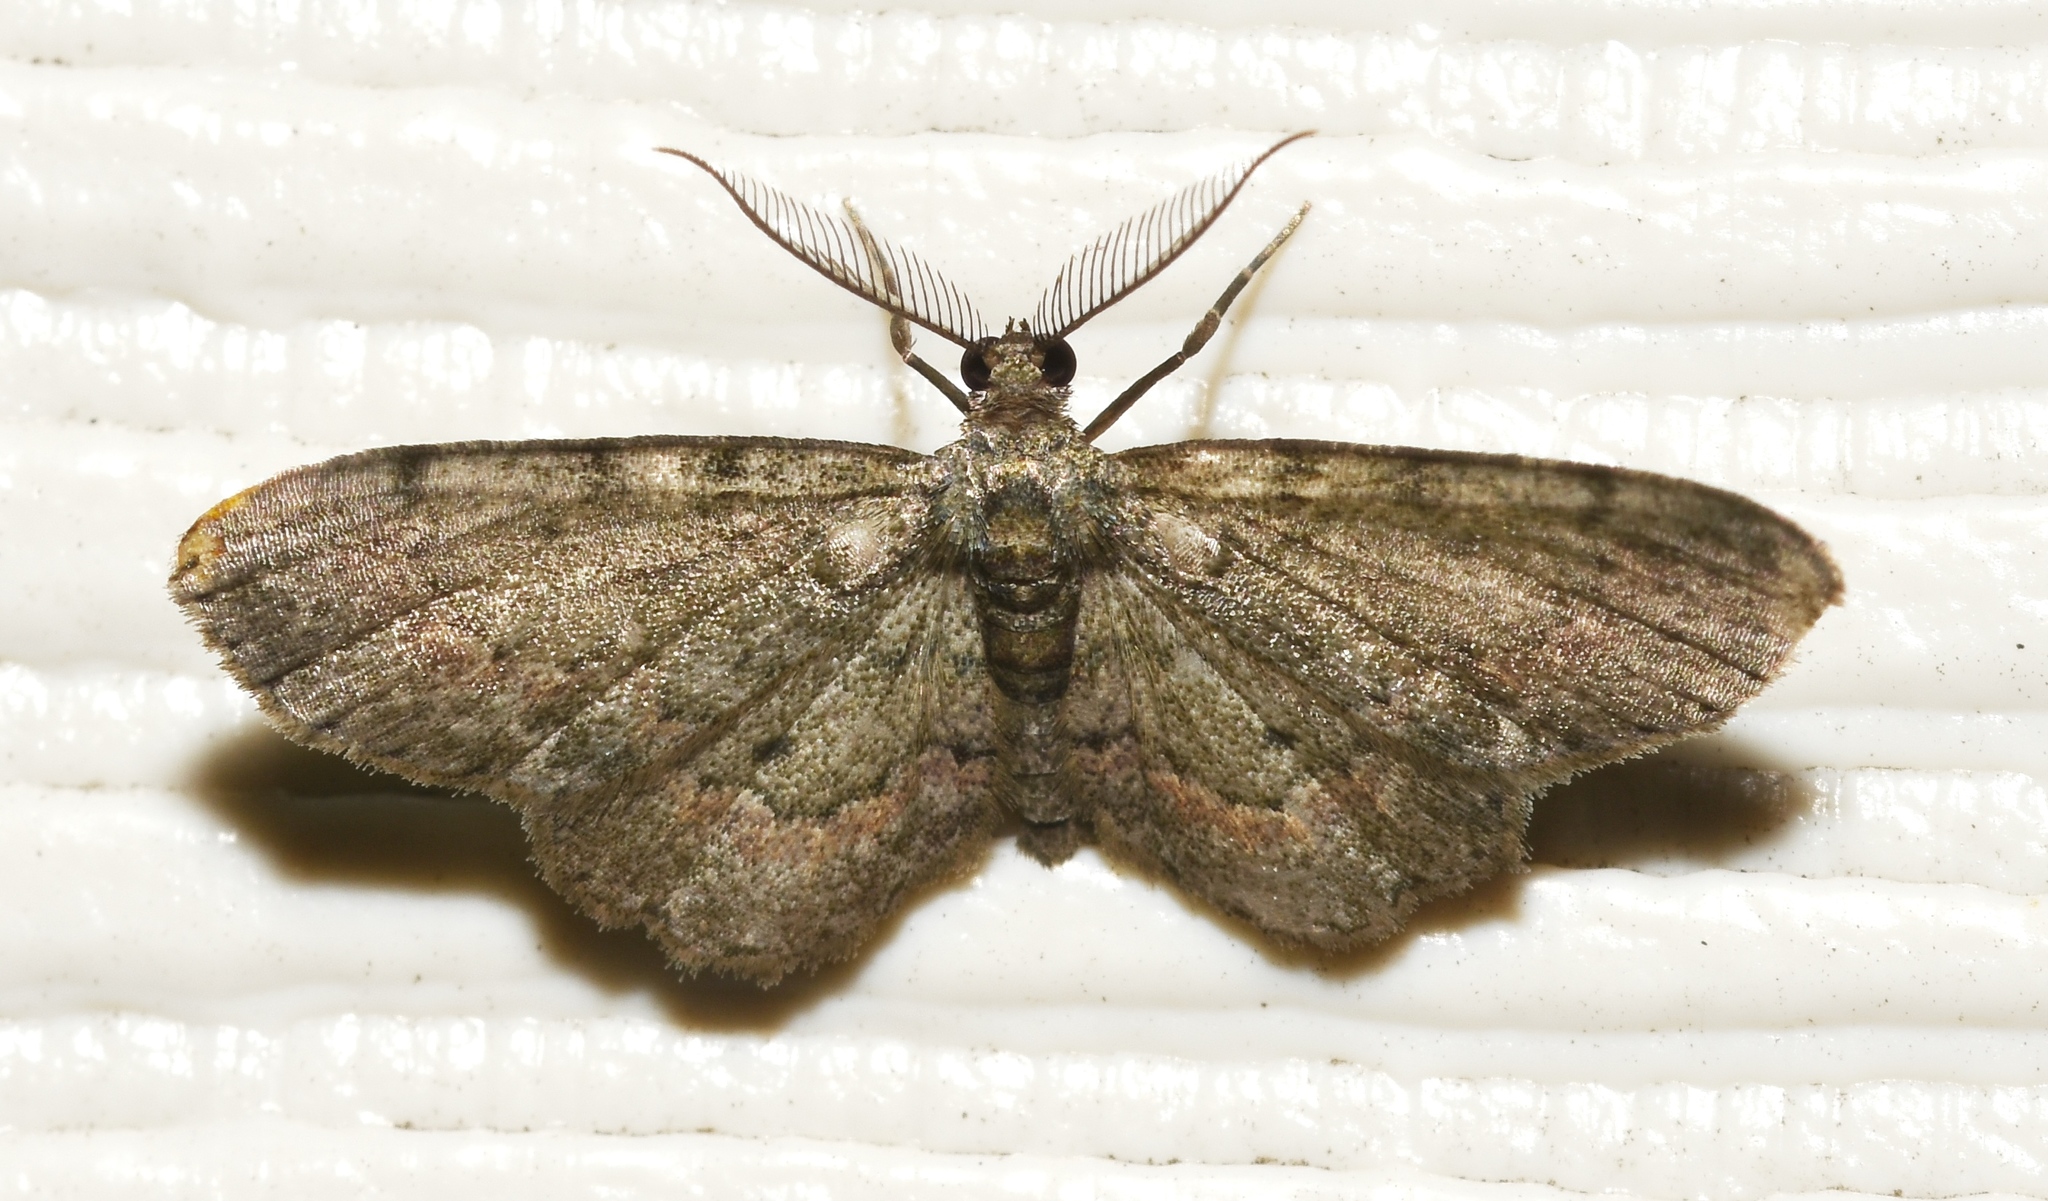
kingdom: Animalia
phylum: Arthropoda
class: Insecta
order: Lepidoptera
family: Geometridae
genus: Glenoides
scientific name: Glenoides texanaria
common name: Texas gray
